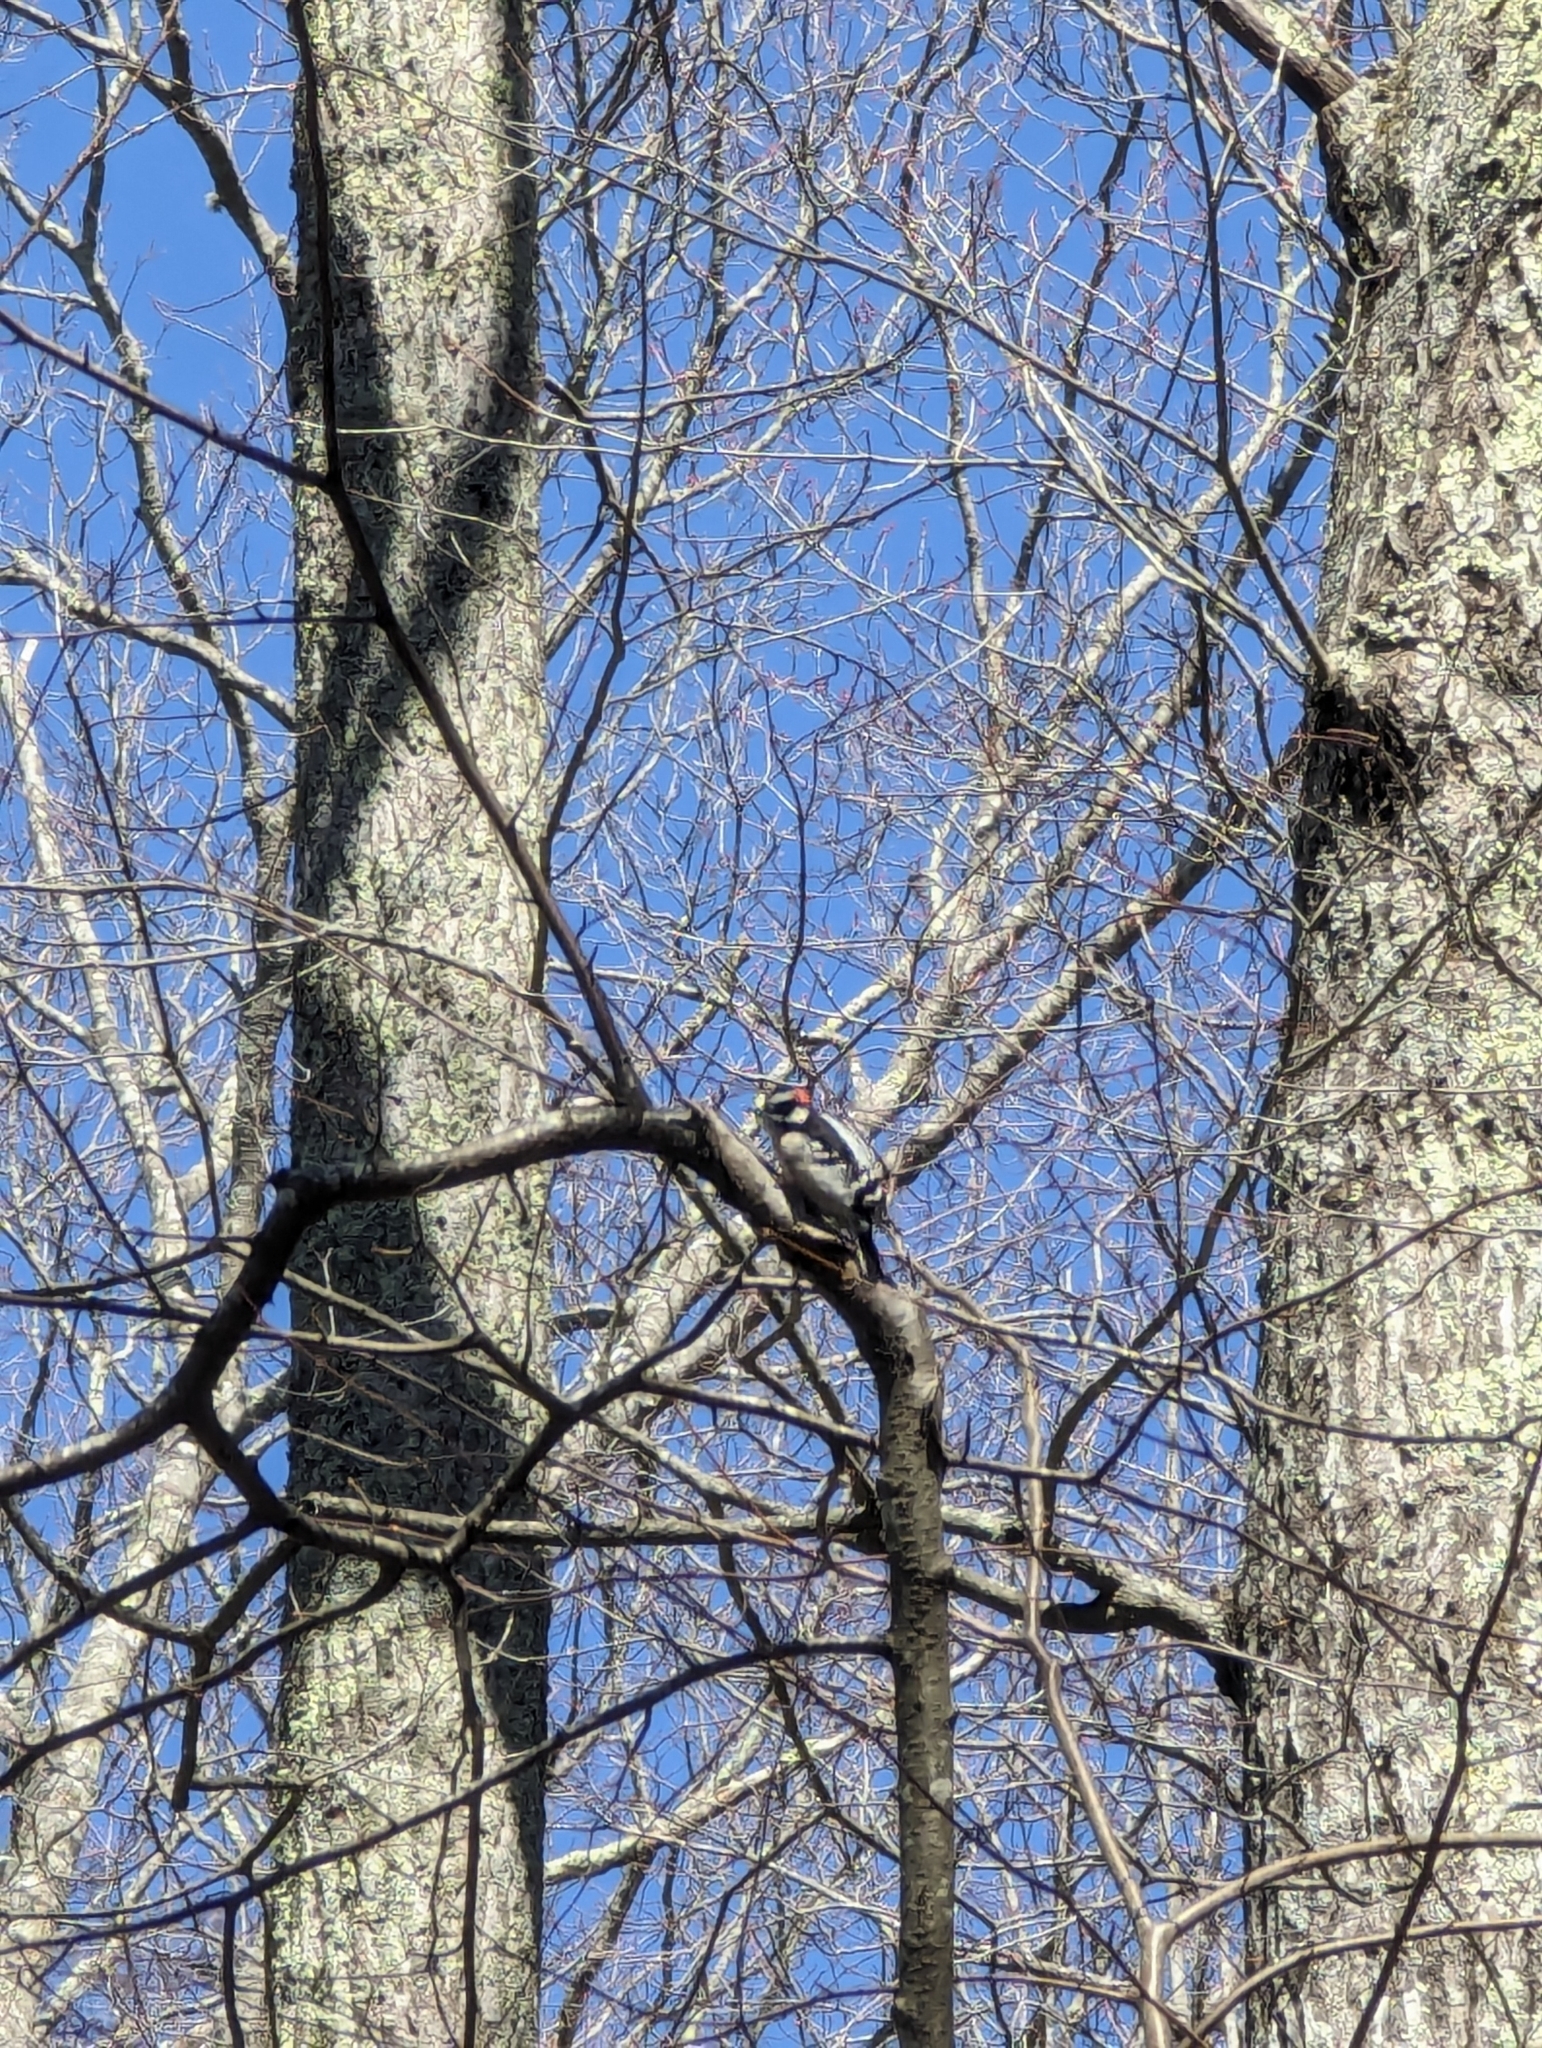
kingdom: Animalia
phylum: Chordata
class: Aves
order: Piciformes
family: Picidae
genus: Dryobates
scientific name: Dryobates pubescens
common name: Downy woodpecker
